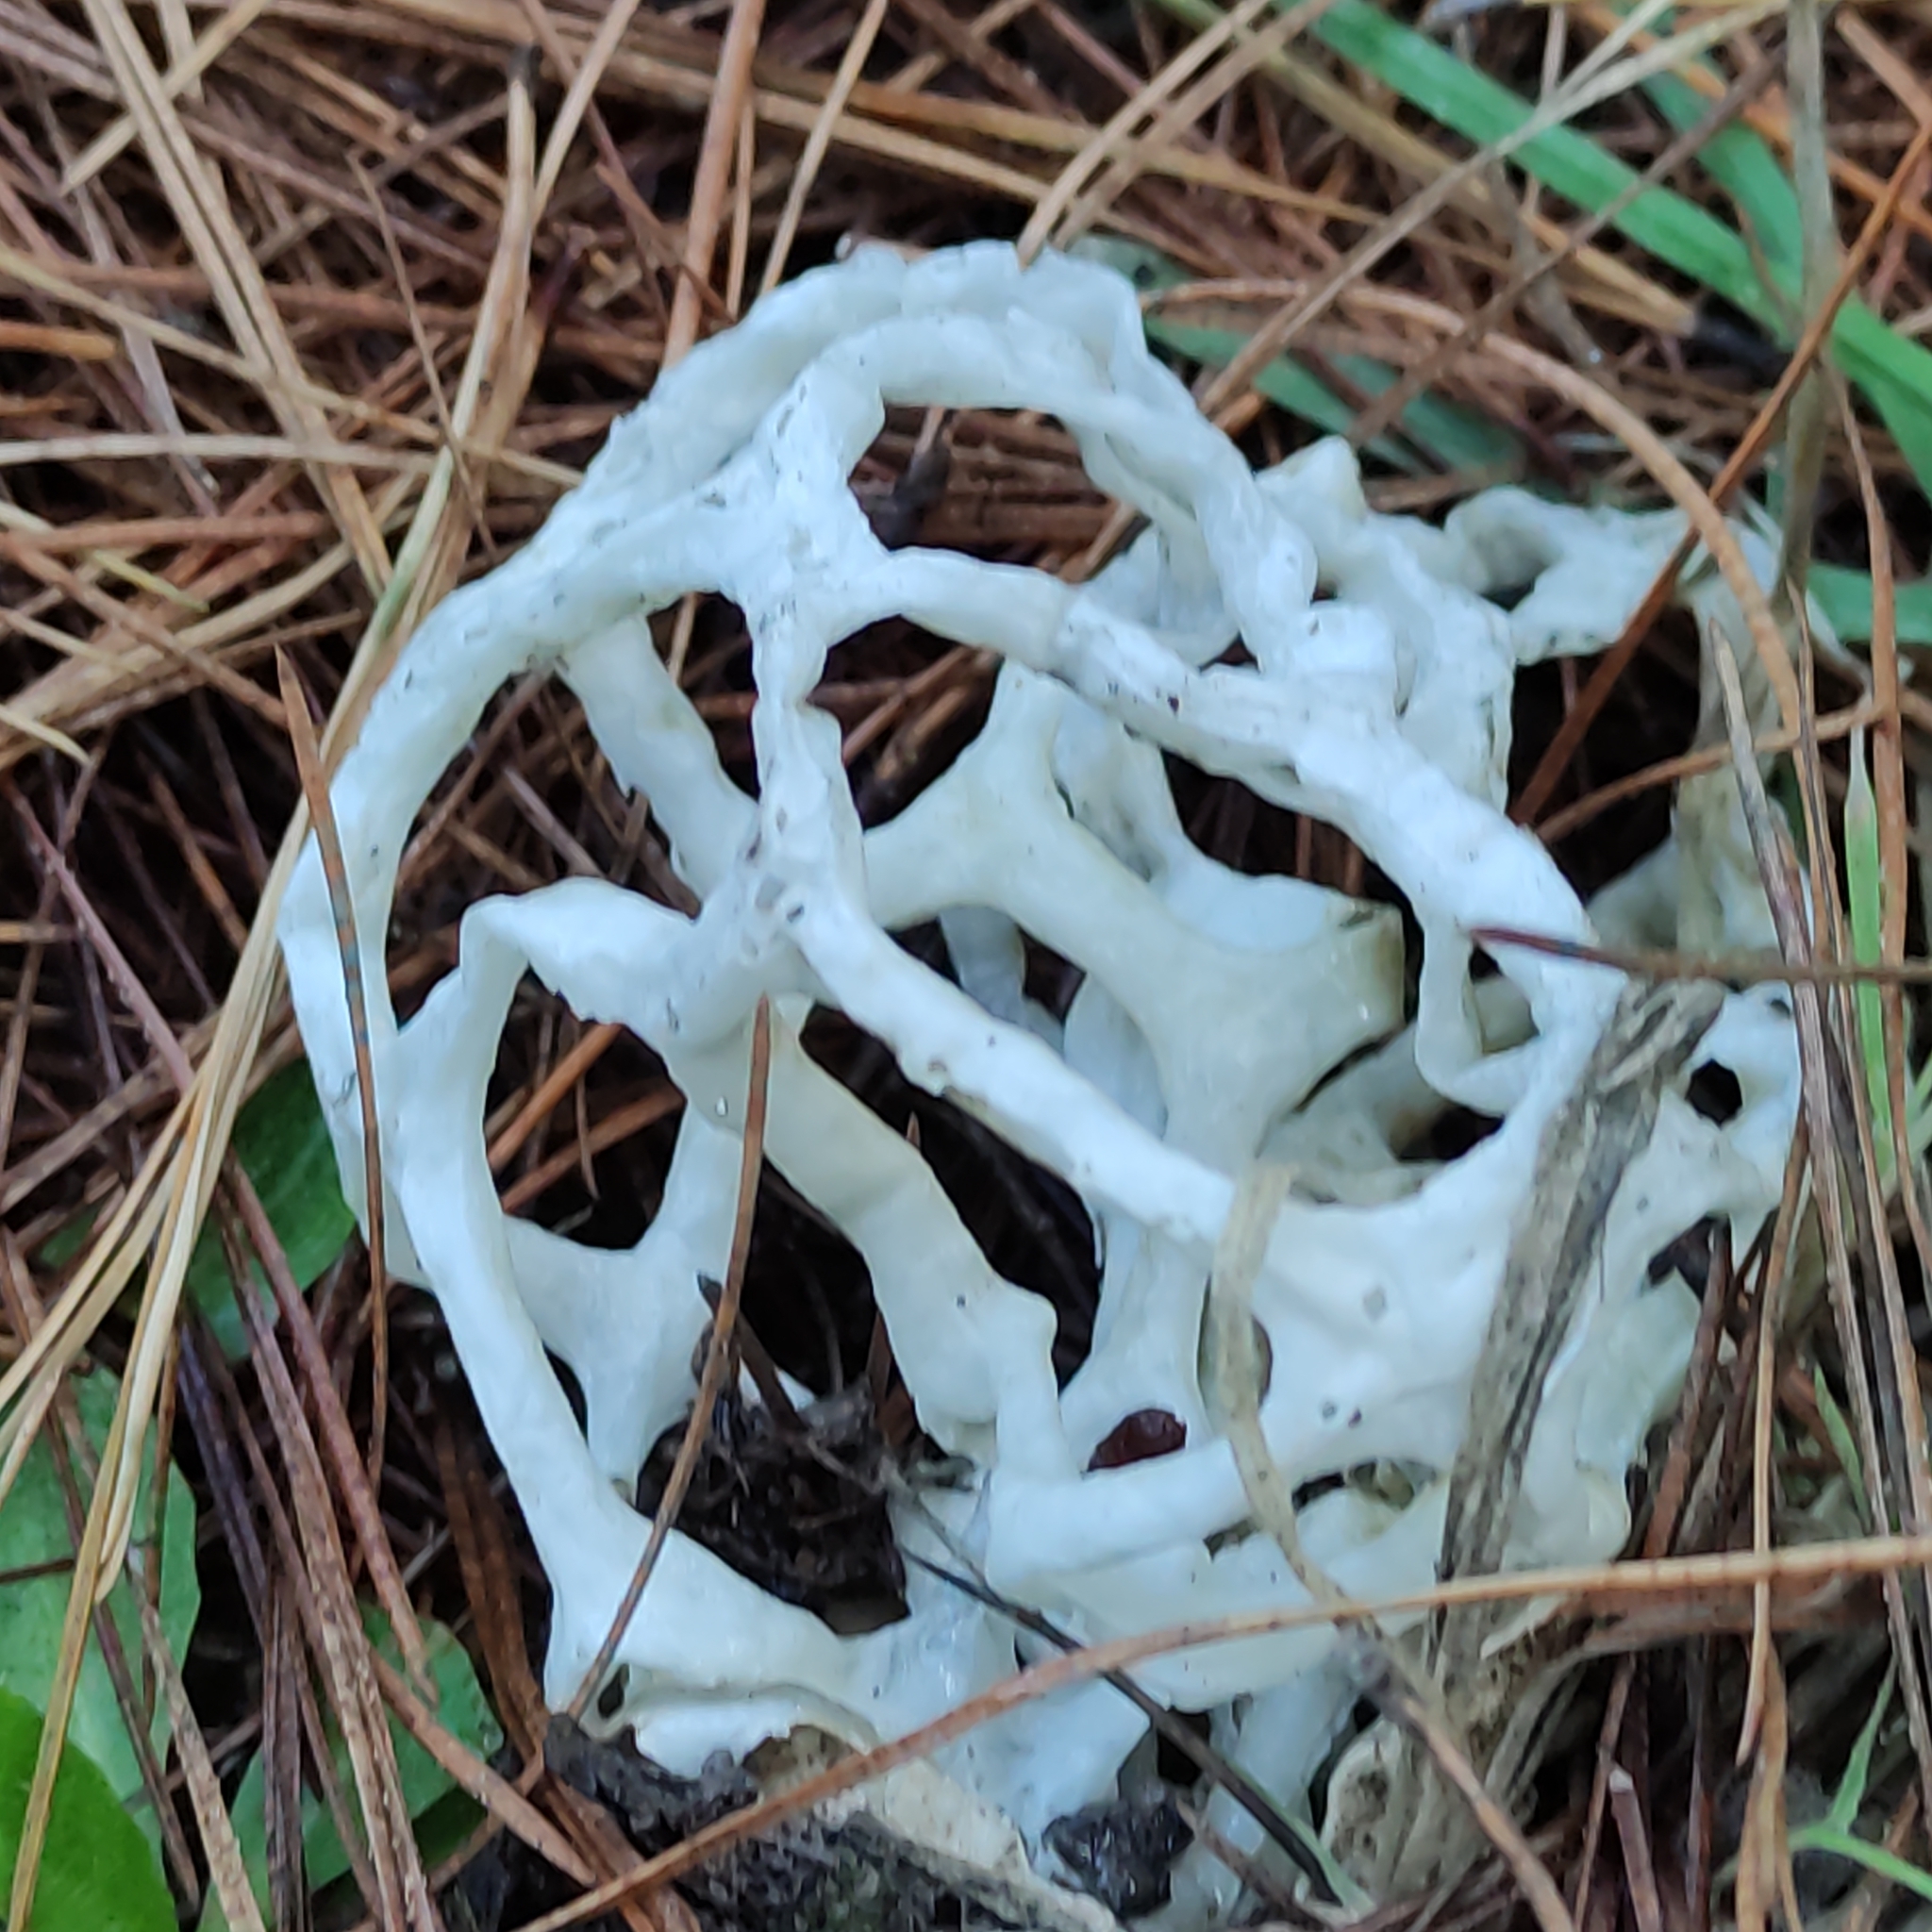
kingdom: Fungi
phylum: Basidiomycota
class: Agaricomycetes
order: Phallales
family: Phallaceae
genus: Ileodictyon
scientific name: Ileodictyon cibarium
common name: Basket fungus
